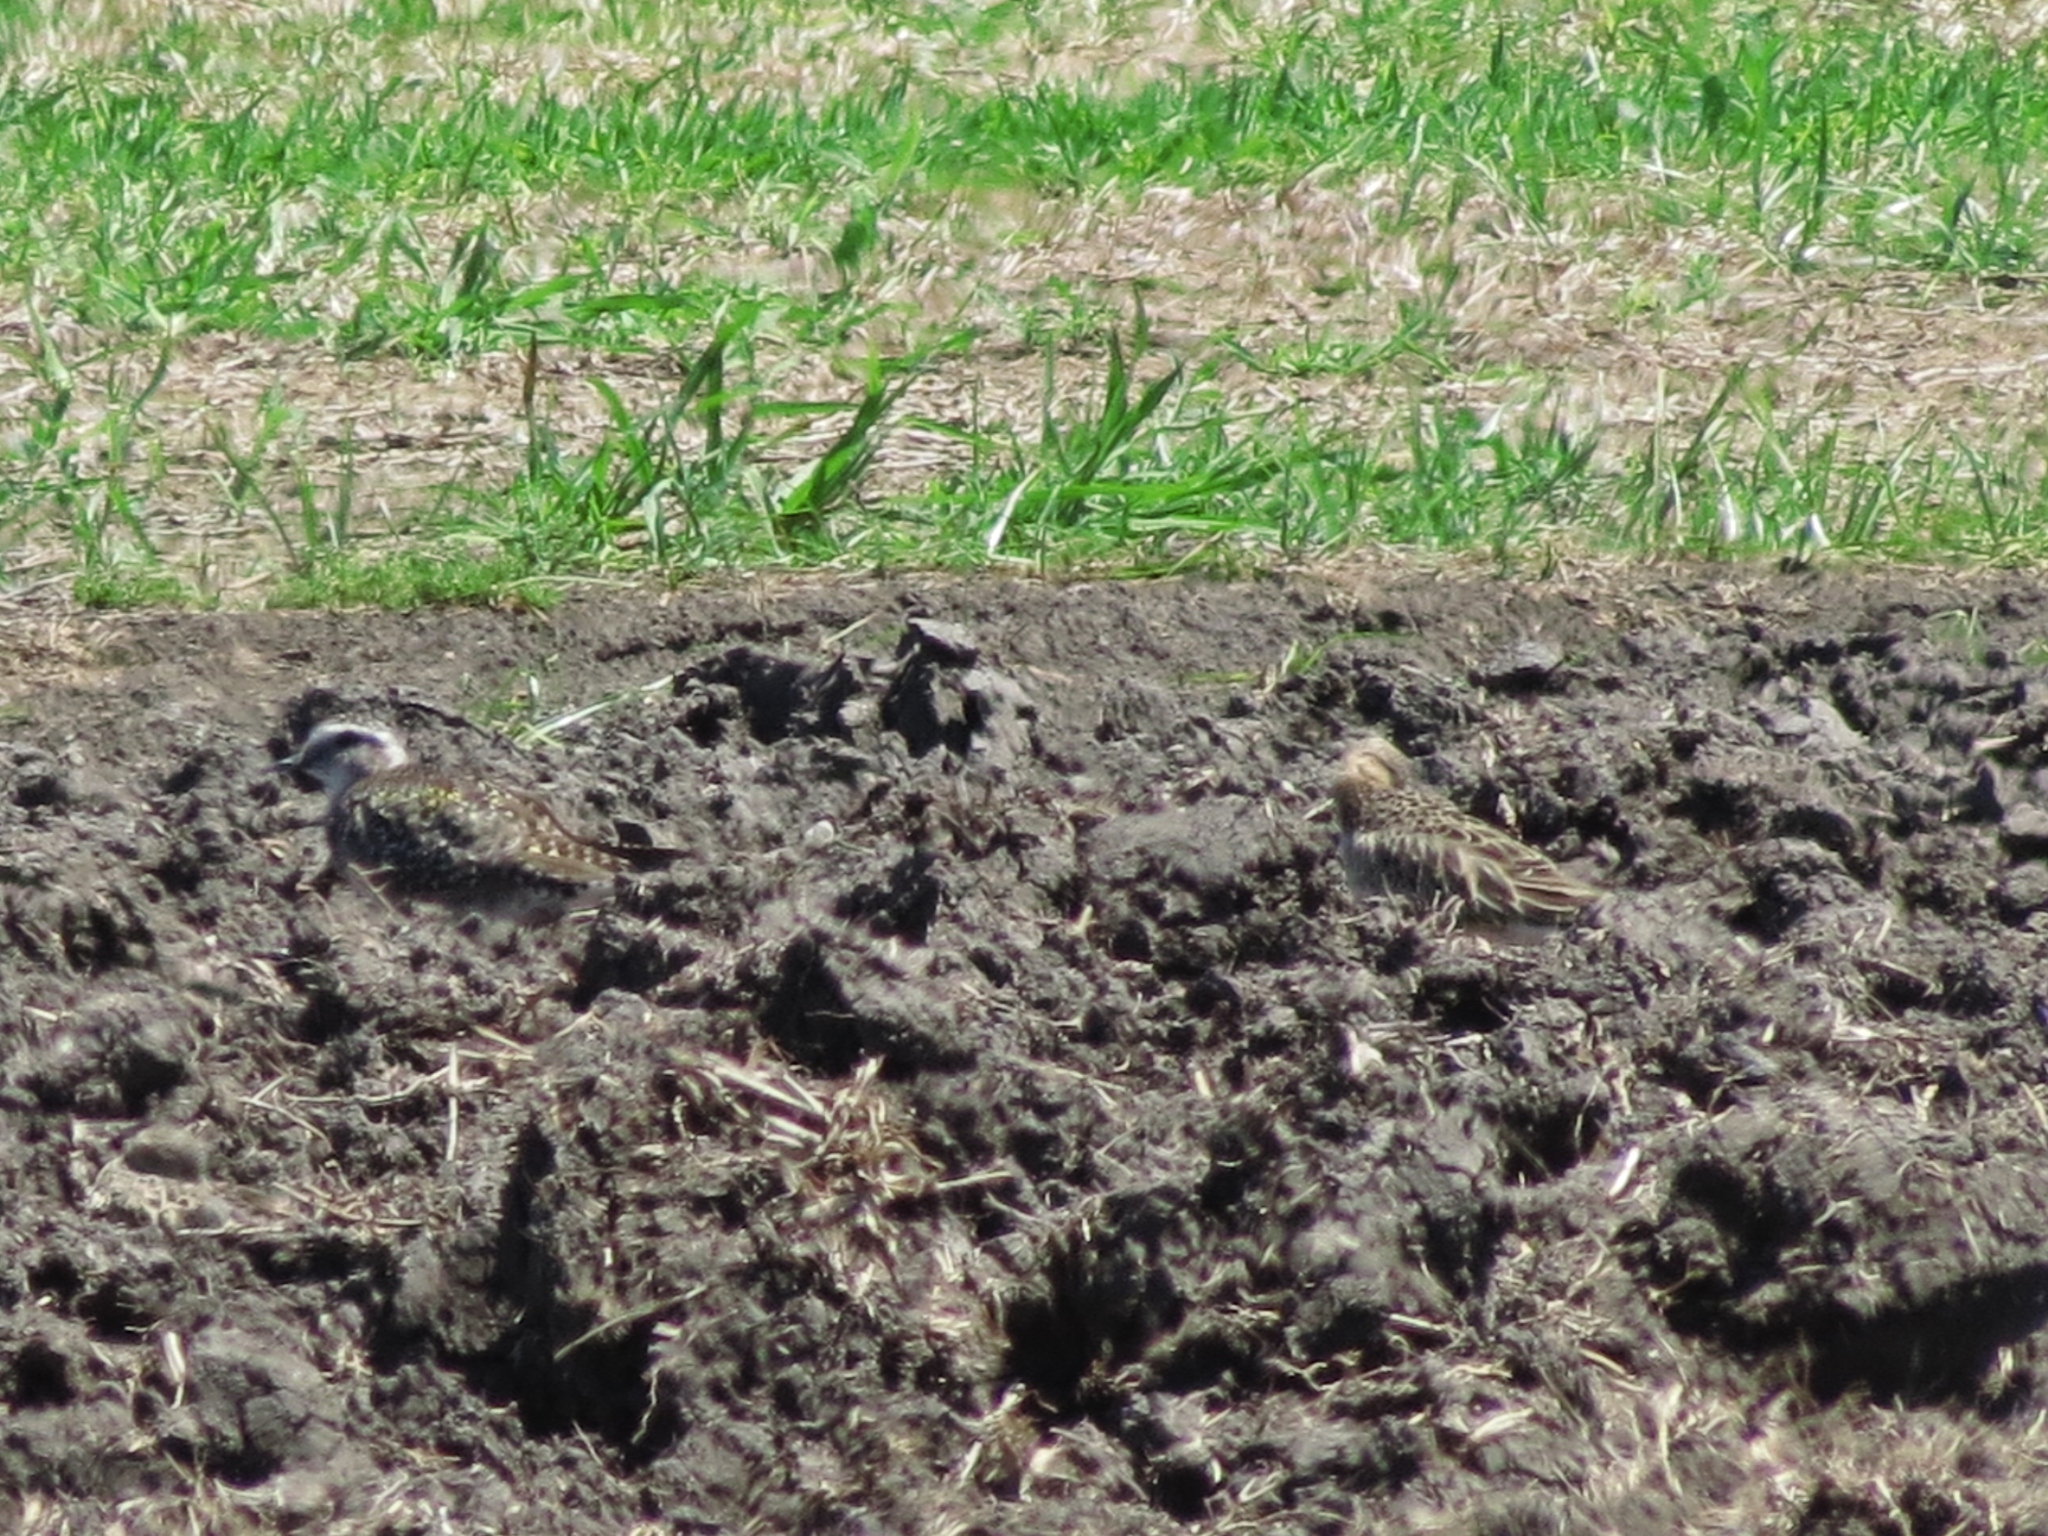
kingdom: Animalia
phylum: Chordata
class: Aves
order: Charadriiformes
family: Charadriidae
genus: Pluvialis
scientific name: Pluvialis dominica
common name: American golden plover
